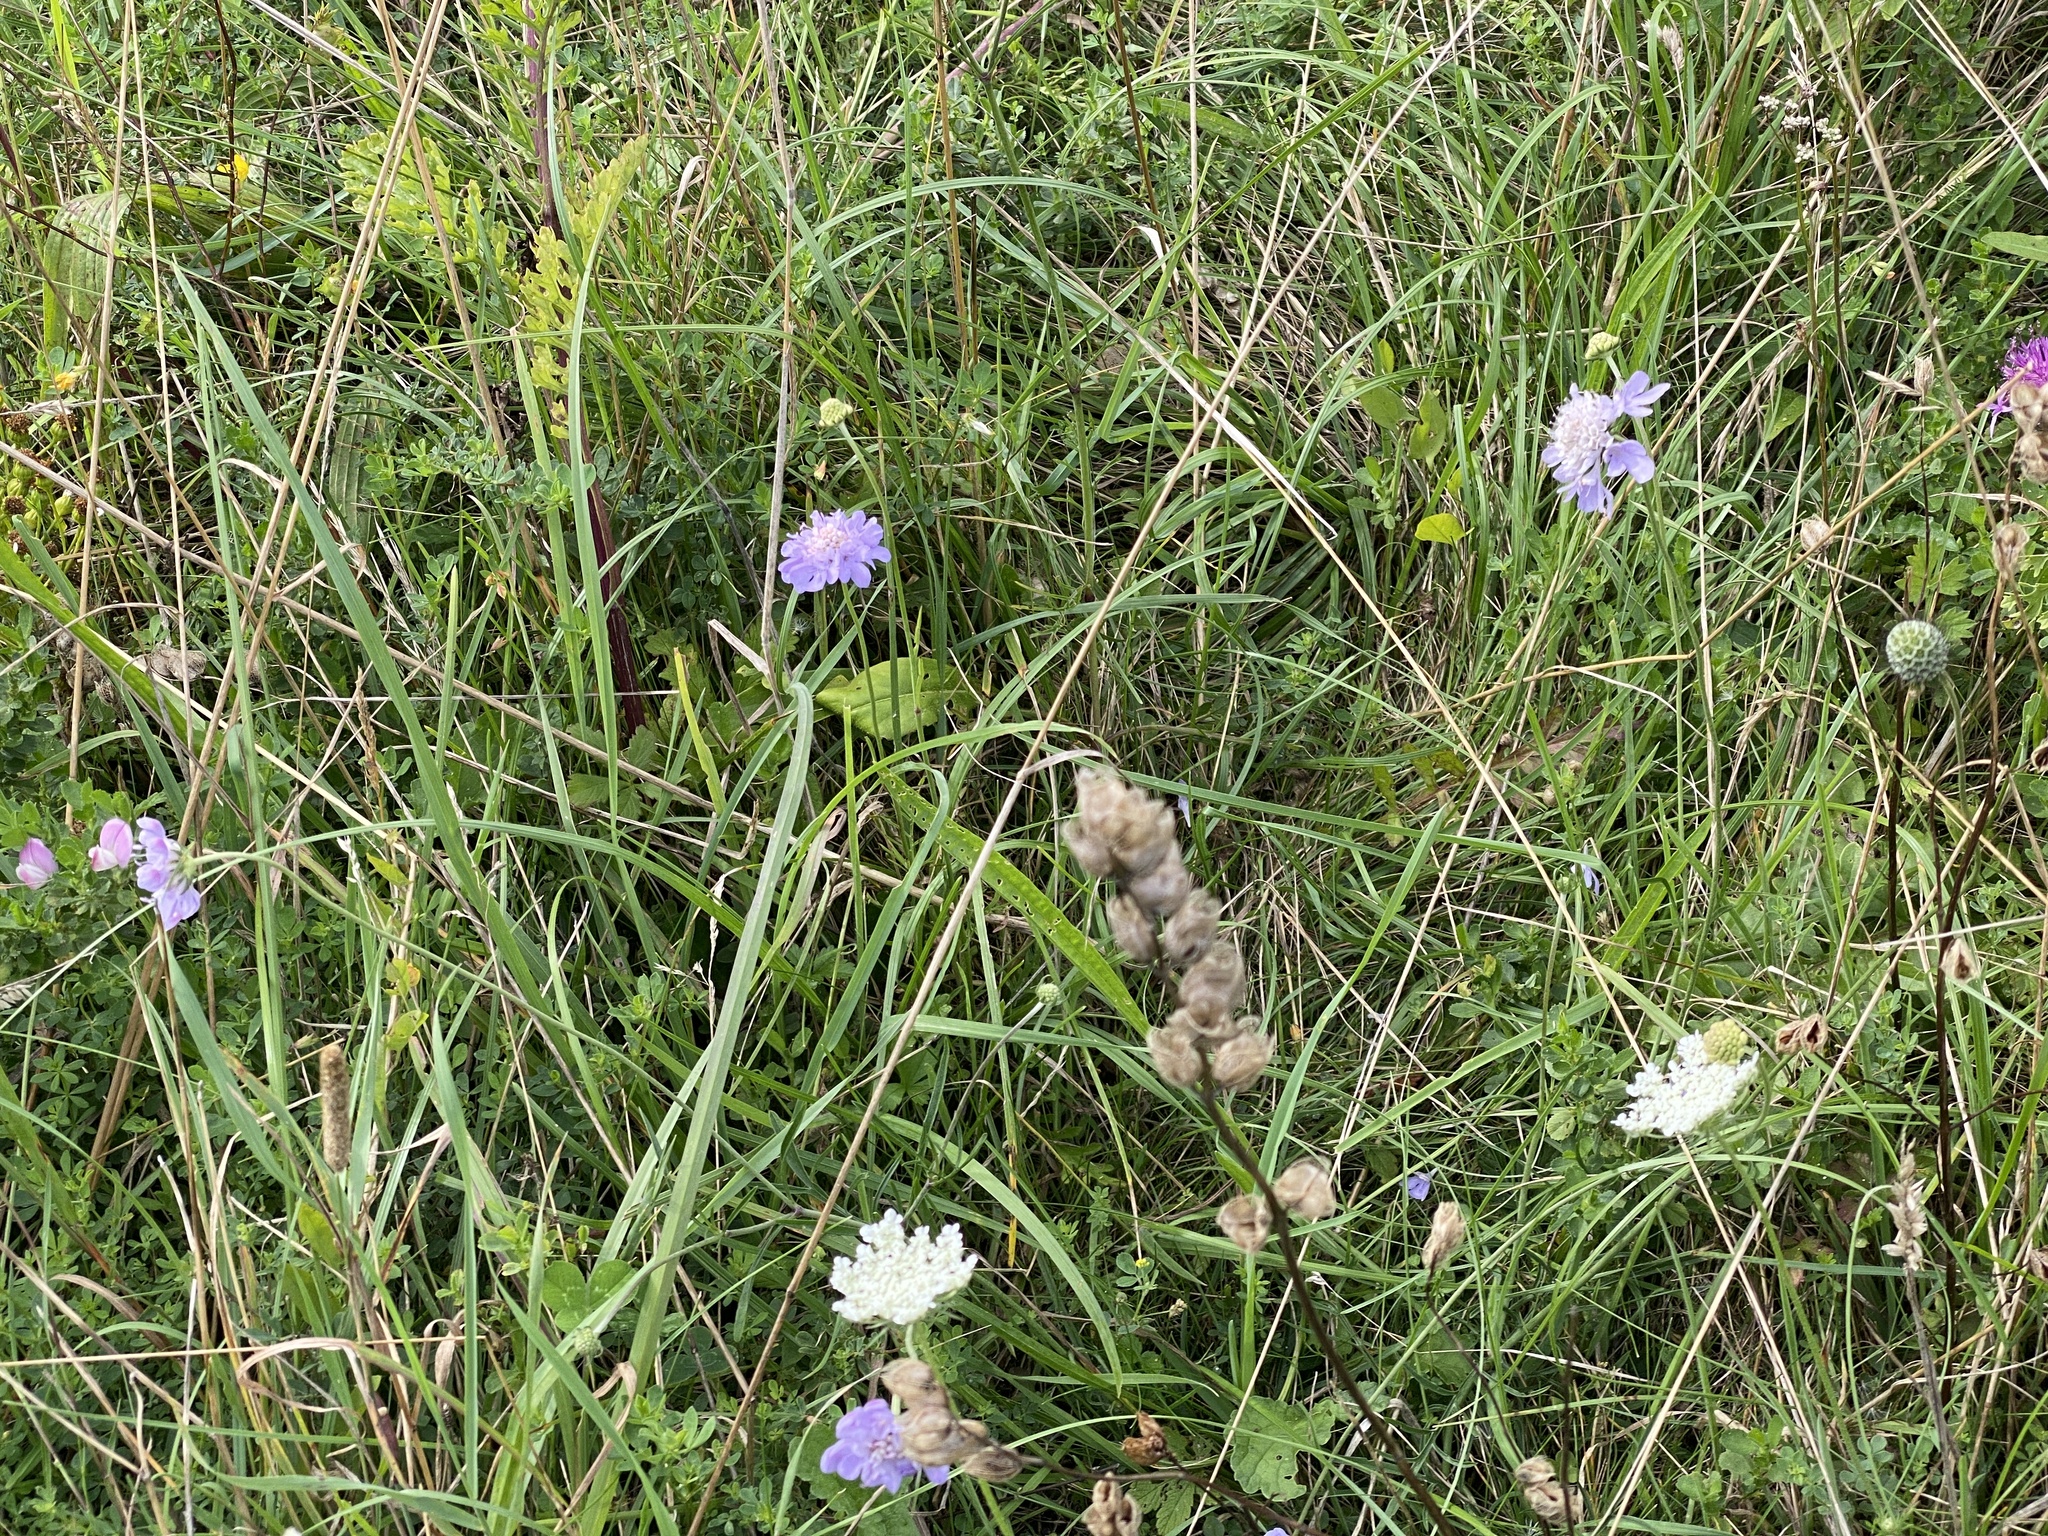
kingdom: Plantae
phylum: Tracheophyta
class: Magnoliopsida
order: Dipsacales
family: Caprifoliaceae
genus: Scabiosa
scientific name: Scabiosa columbaria
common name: Small scabious
